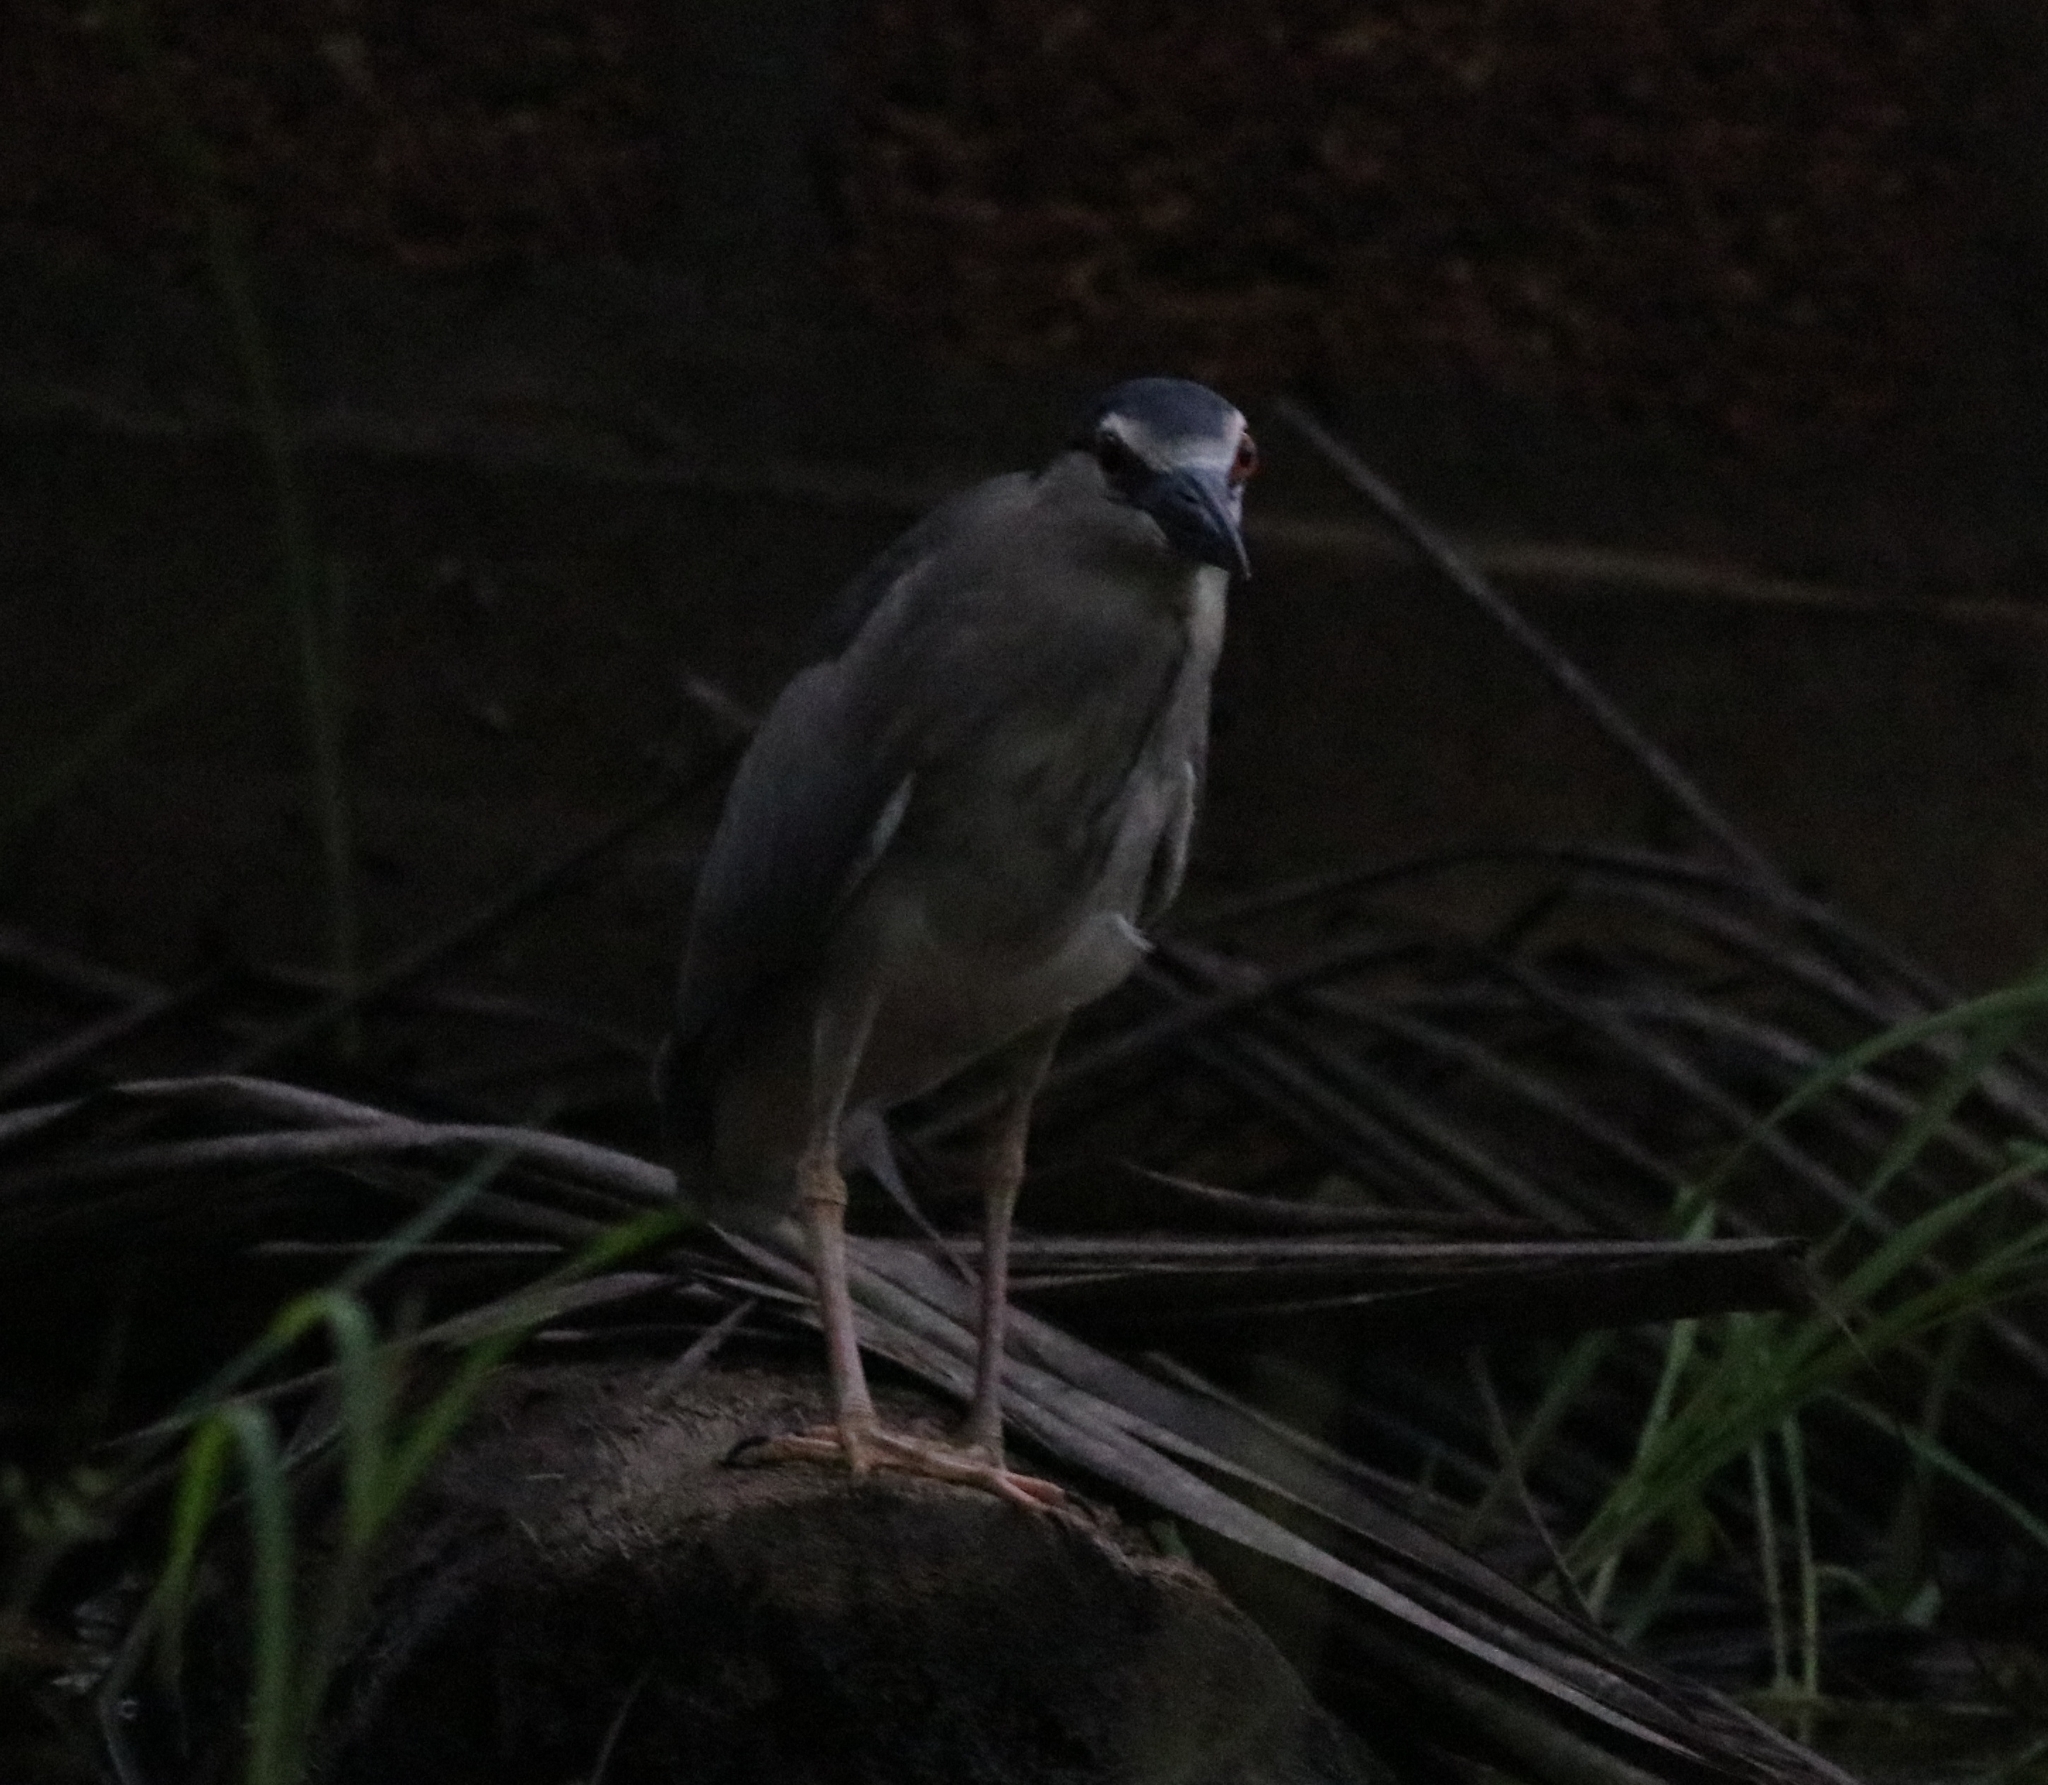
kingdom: Animalia
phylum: Chordata
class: Aves
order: Pelecaniformes
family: Ardeidae
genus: Nycticorax
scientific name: Nycticorax nycticorax
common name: Black-crowned night heron
